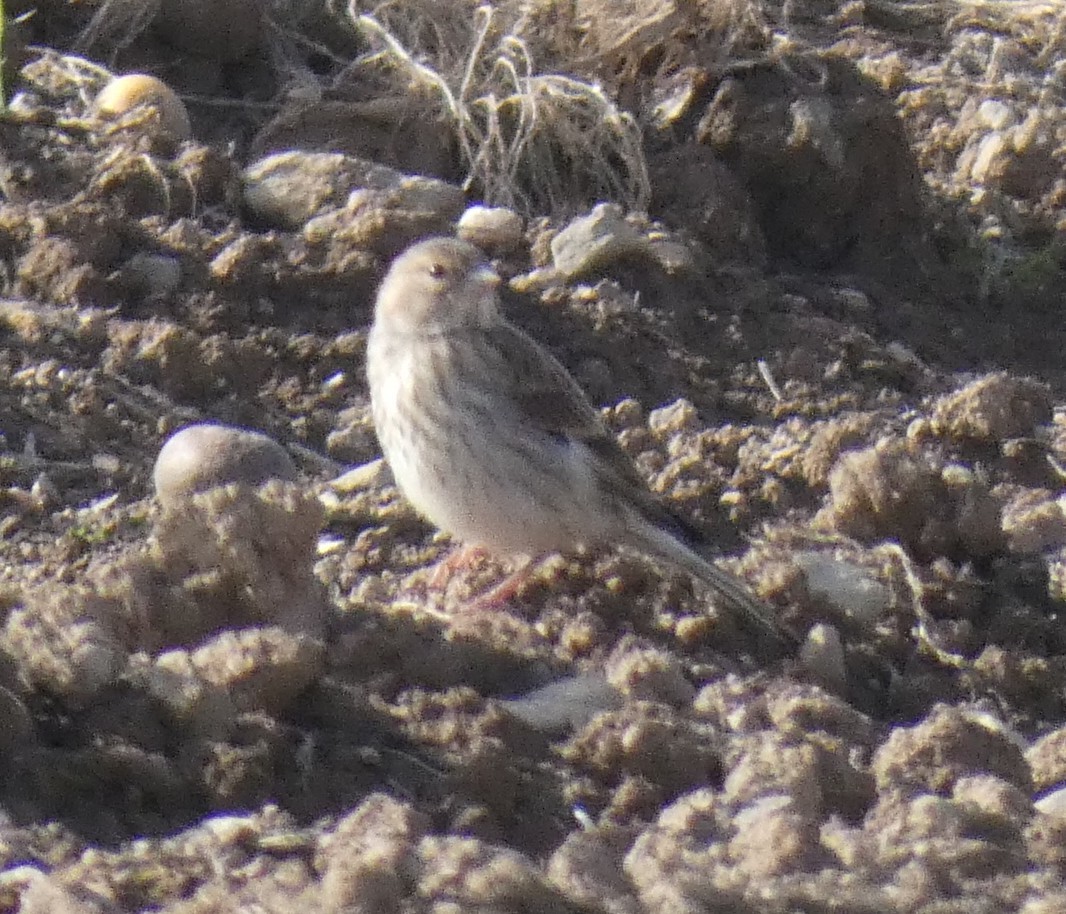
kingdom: Animalia
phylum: Chordata
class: Aves
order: Passeriformes
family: Fringillidae
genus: Linaria
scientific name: Linaria cannabina
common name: Common linnet
